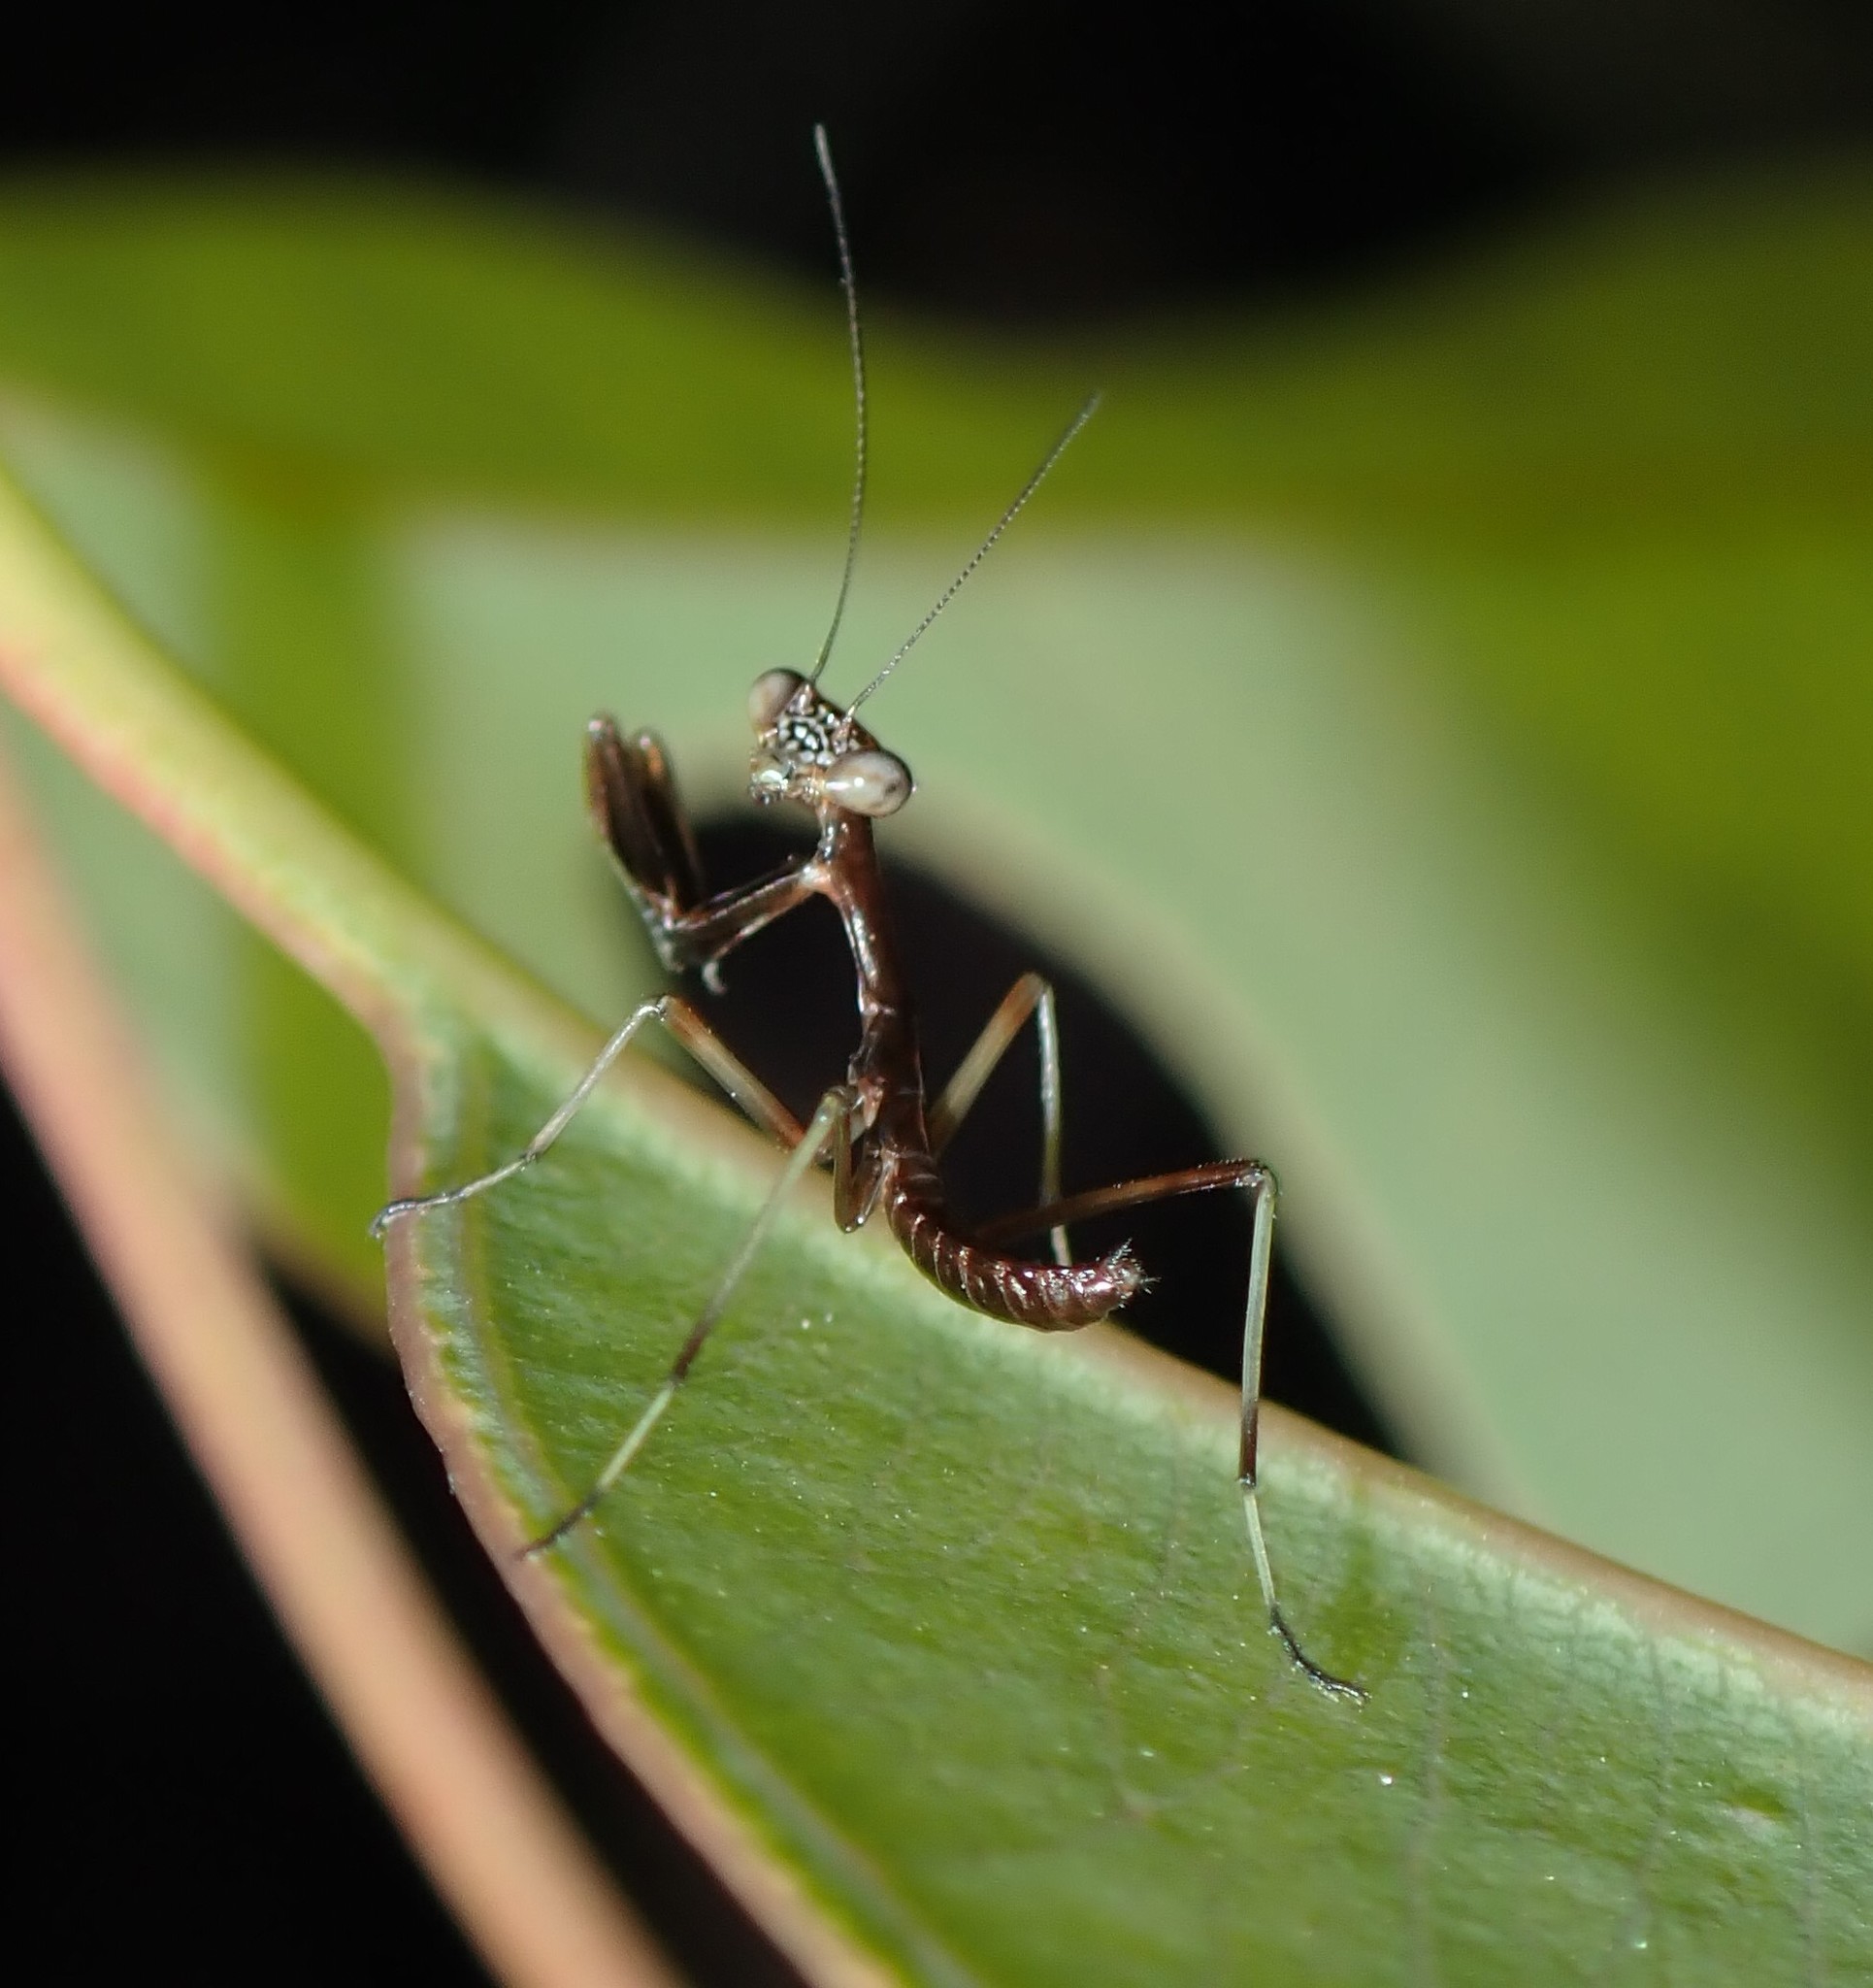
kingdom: Animalia
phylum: Arthropoda
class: Insecta
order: Mantodea
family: Mantidae
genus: Pseudomantis
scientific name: Pseudomantis albofimbriata
